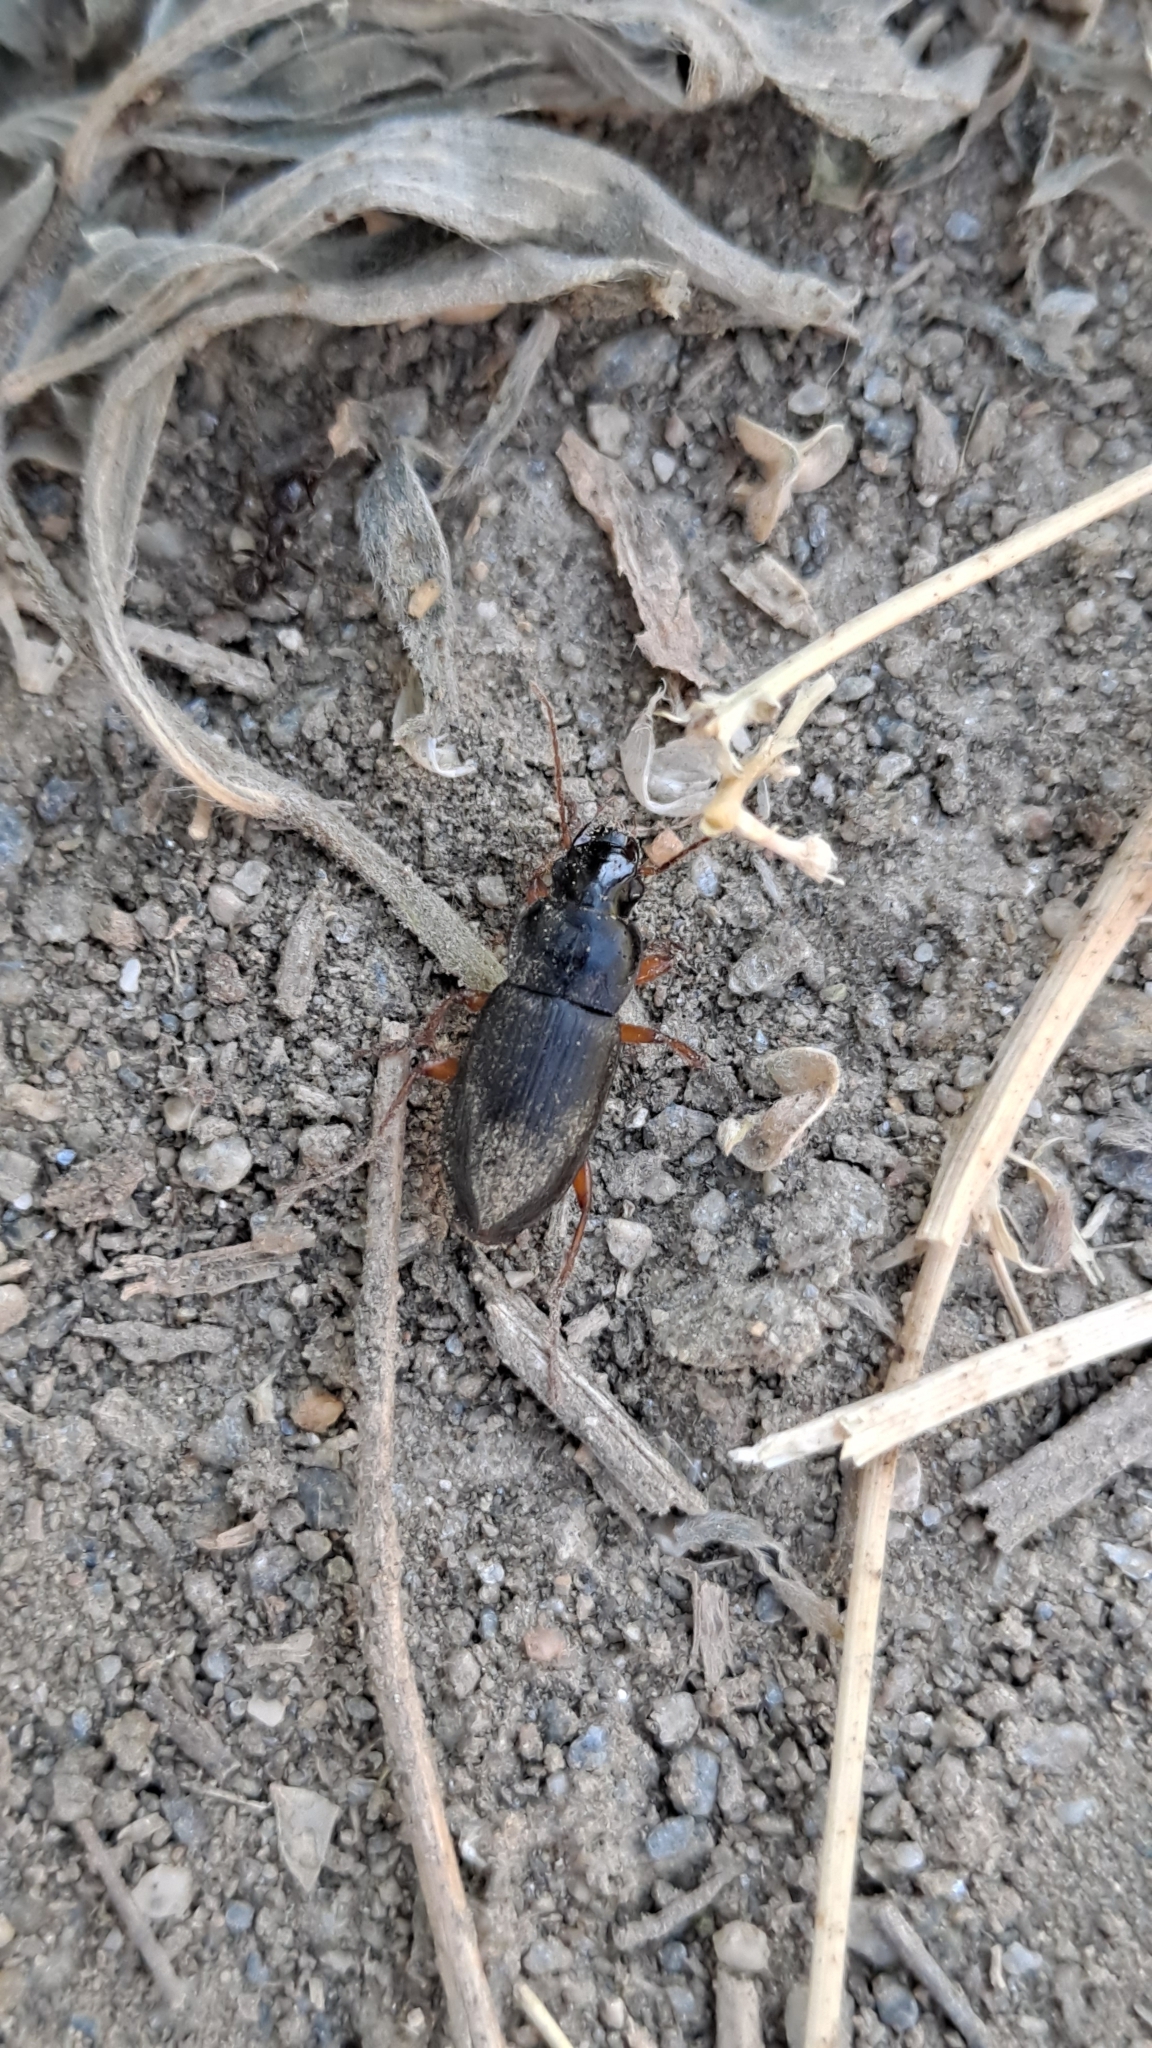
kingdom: Animalia
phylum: Arthropoda
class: Insecta
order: Coleoptera
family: Carabidae
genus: Harpalus
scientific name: Harpalus rufipes
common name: Strawberry harp ground beetle
